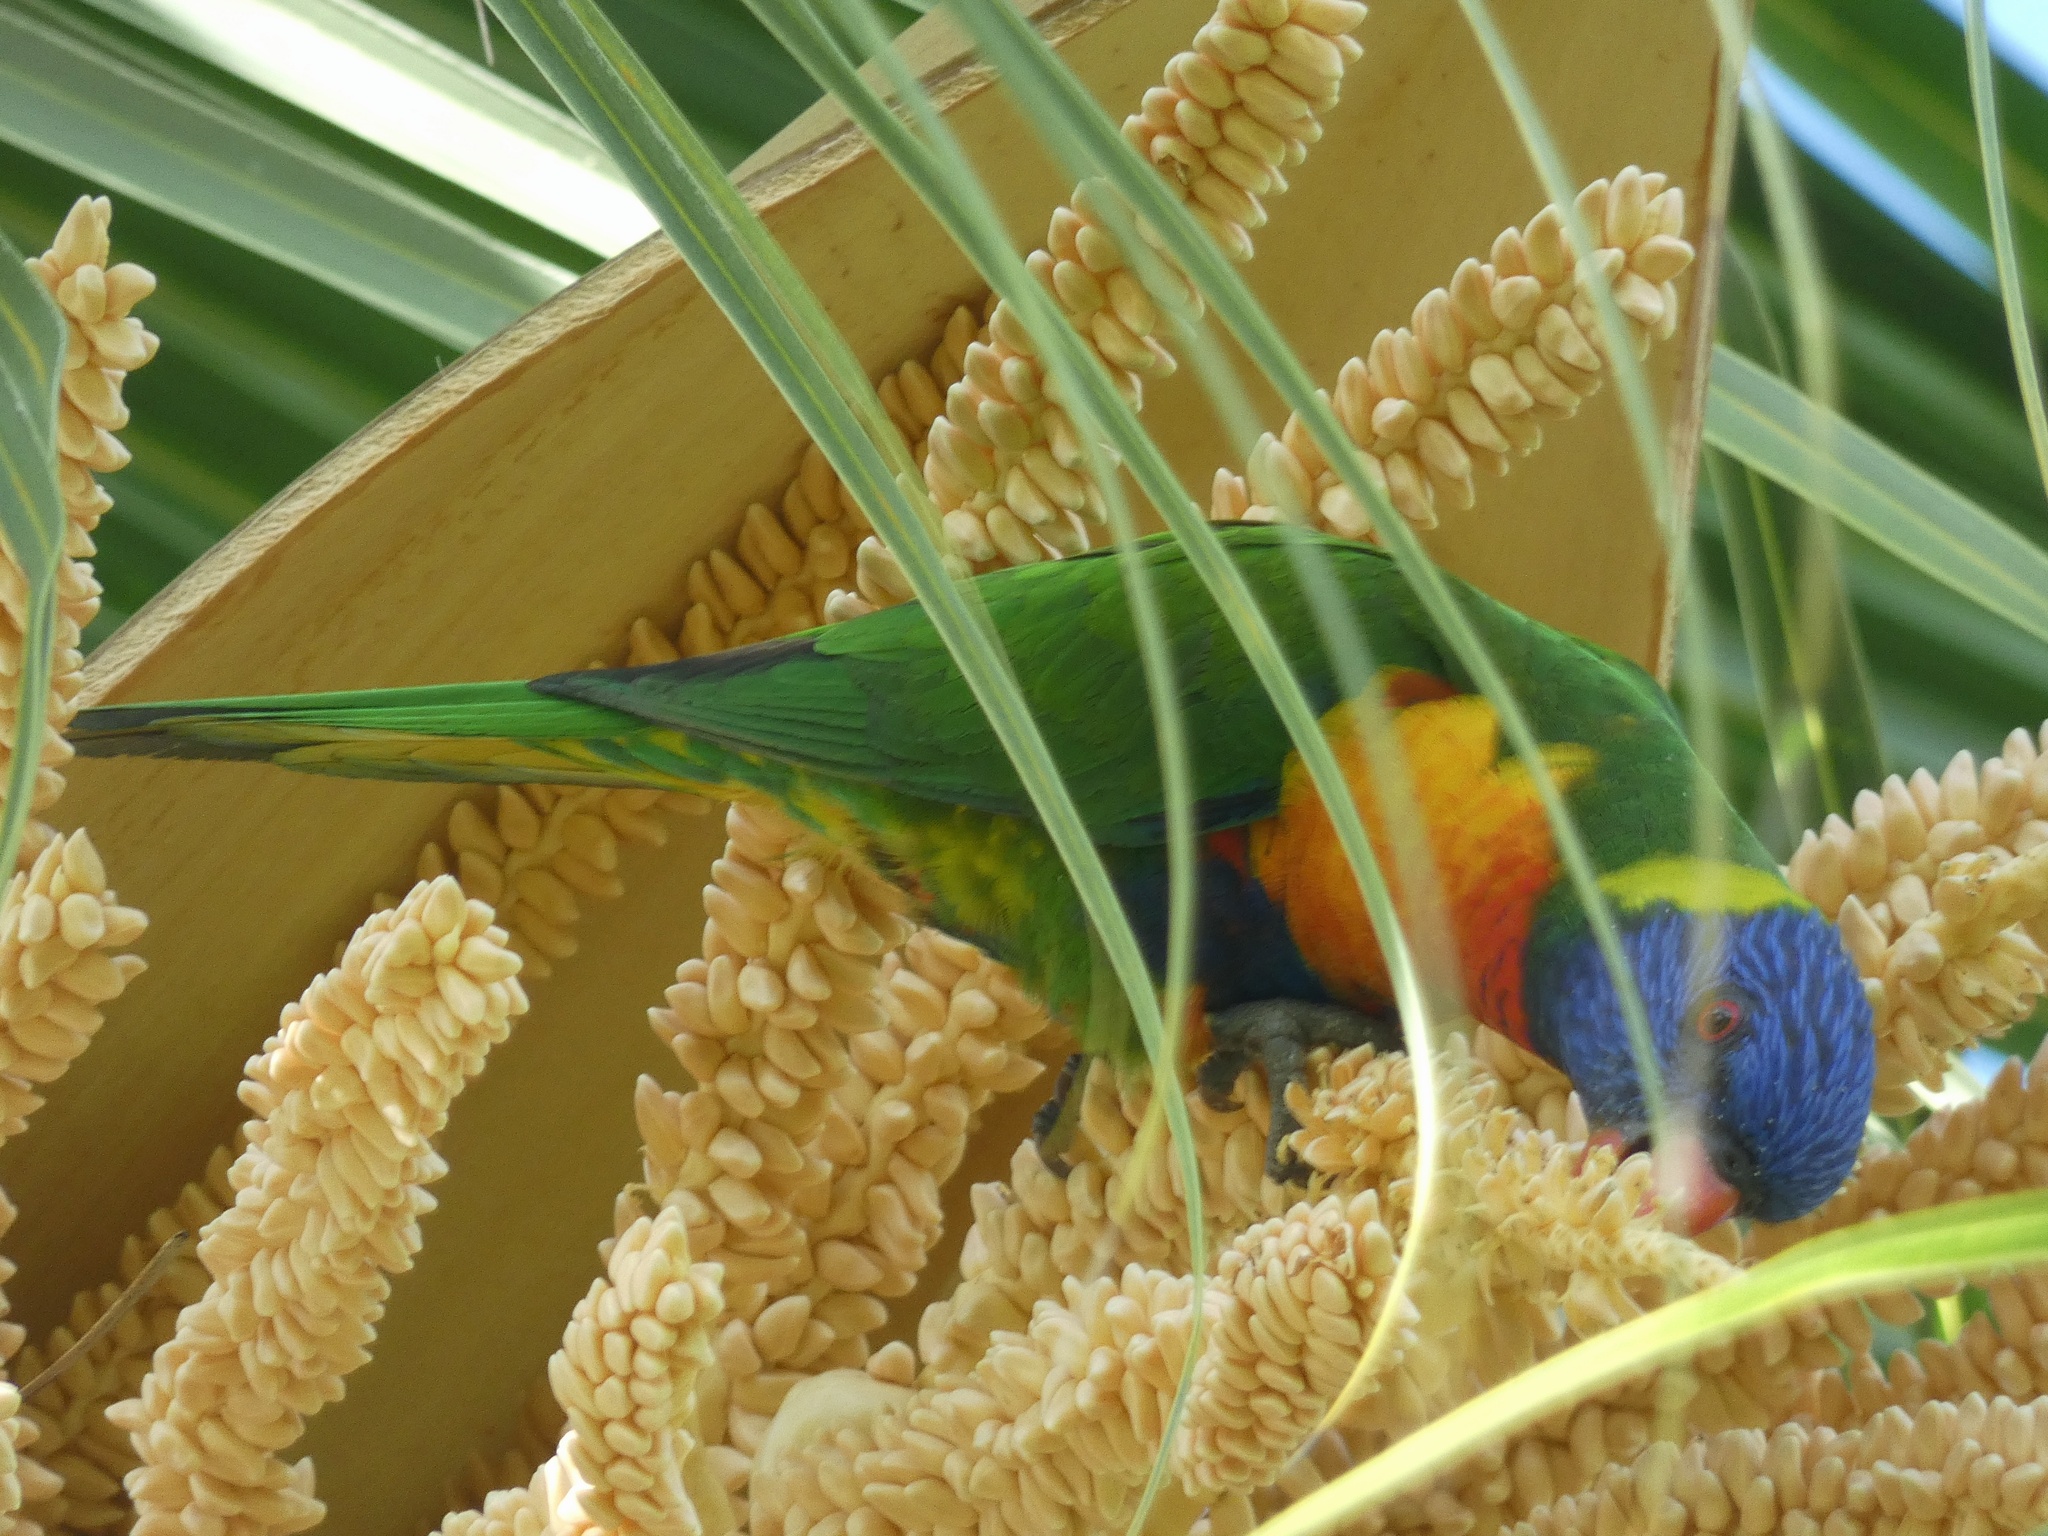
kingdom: Animalia
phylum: Chordata
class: Aves
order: Psittaciformes
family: Psittacidae
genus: Trichoglossus
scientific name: Trichoglossus haematodus
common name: Coconut lorikeet
